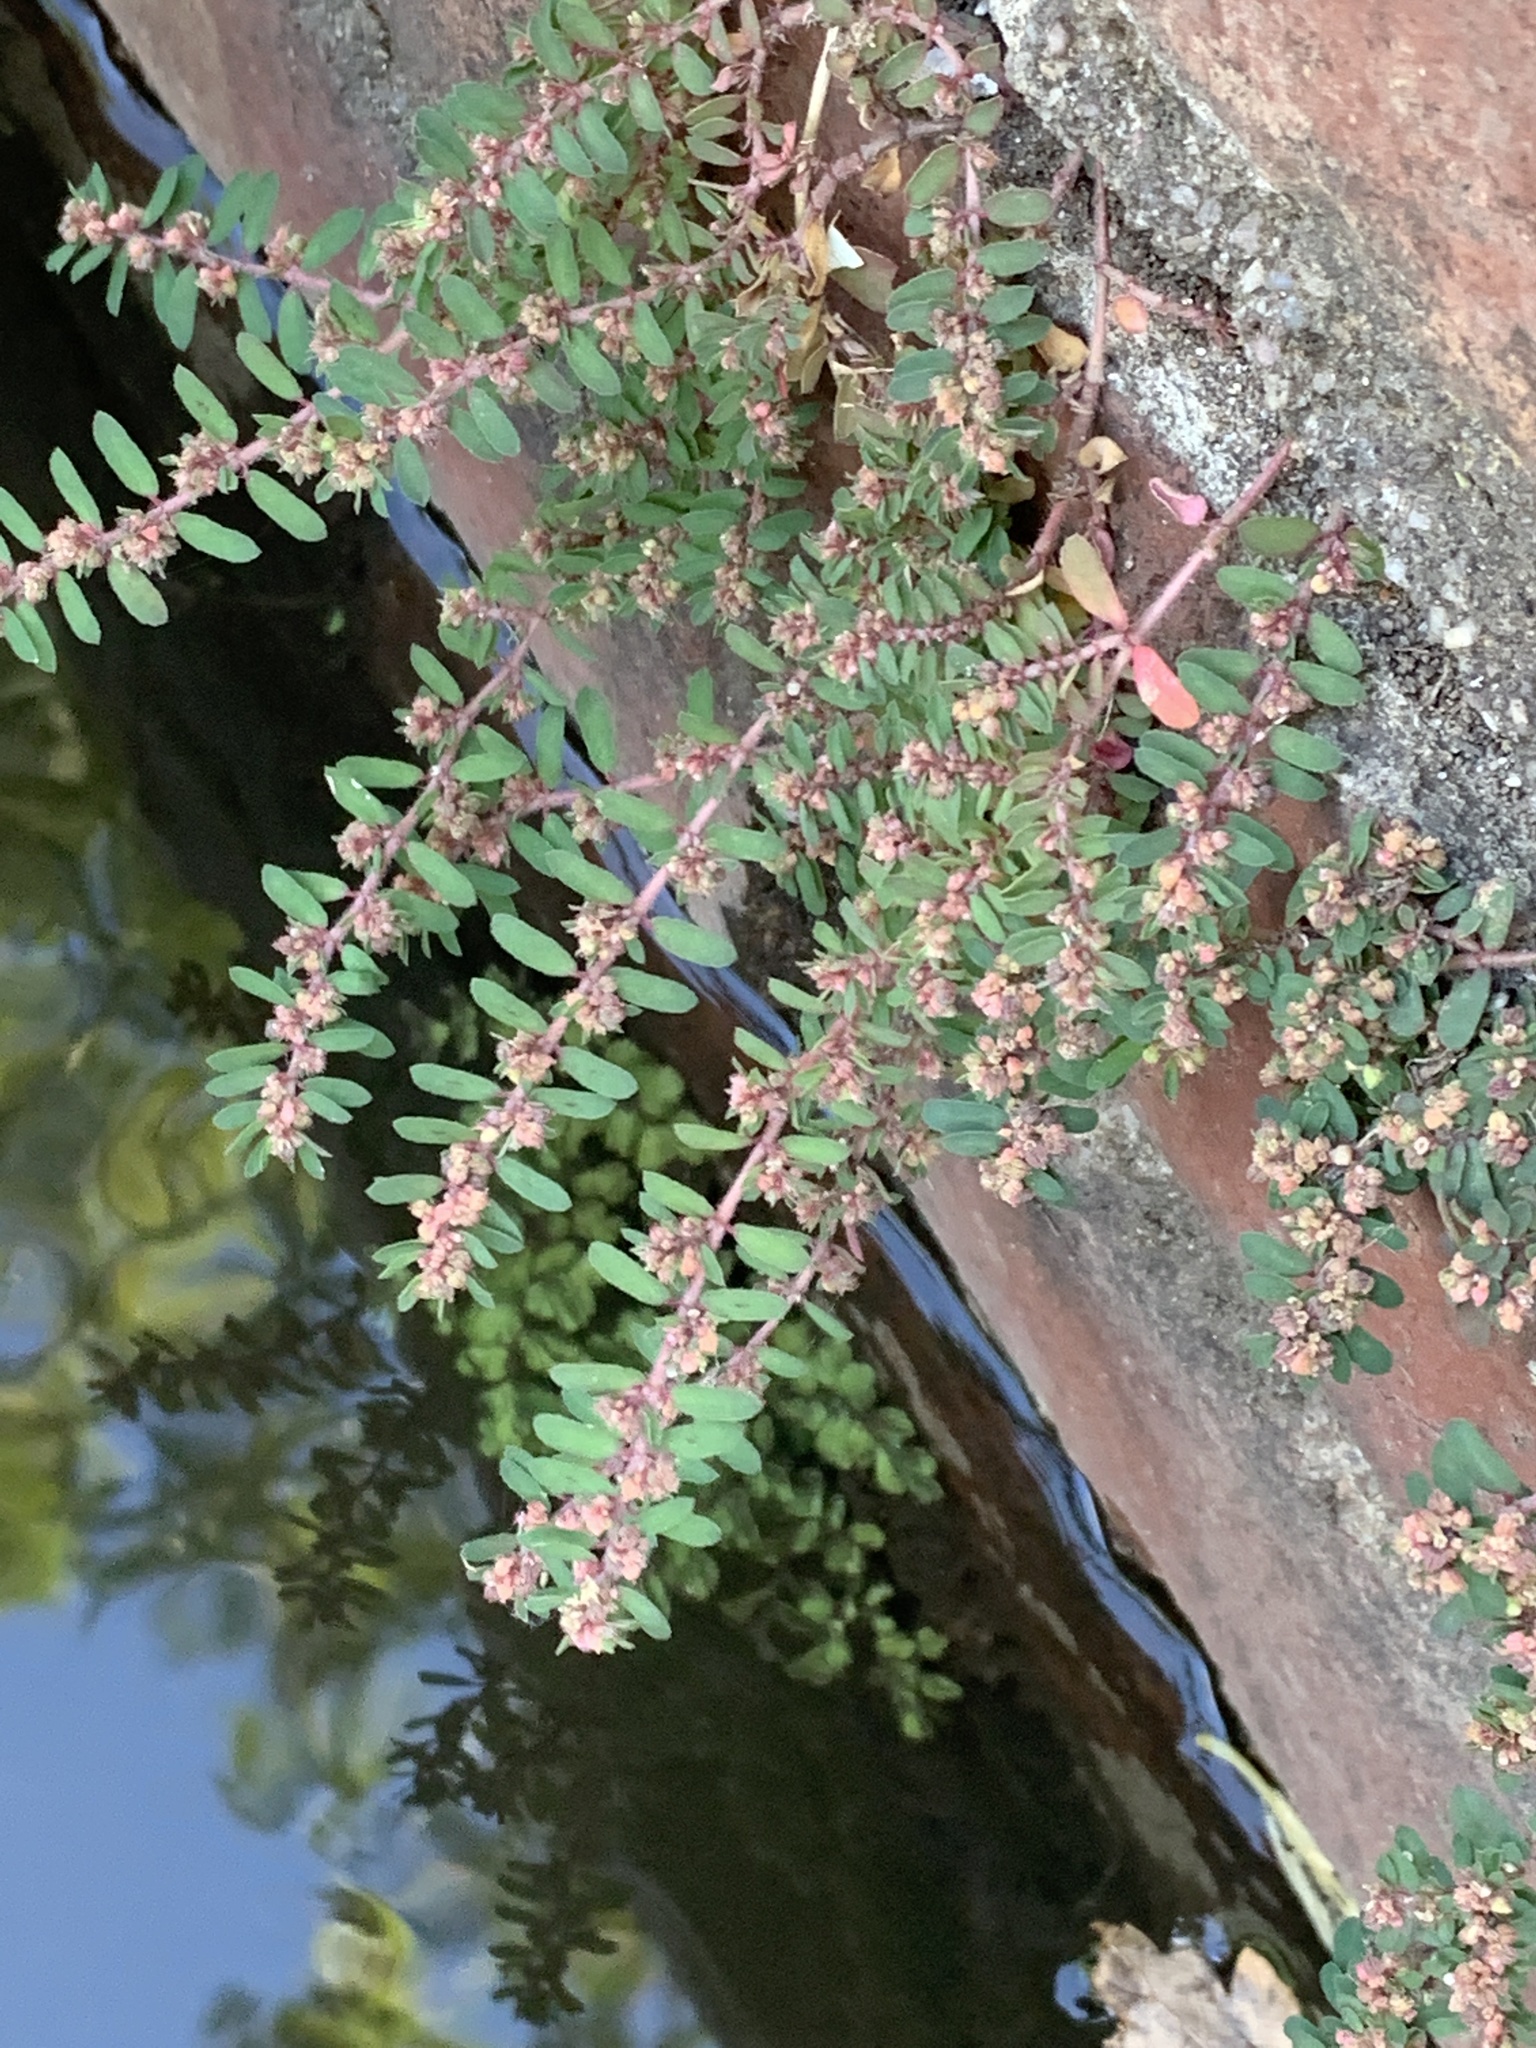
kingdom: Plantae
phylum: Tracheophyta
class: Magnoliopsida
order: Malpighiales
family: Euphorbiaceae
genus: Euphorbia
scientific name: Euphorbia maculata
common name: Spotted spurge
